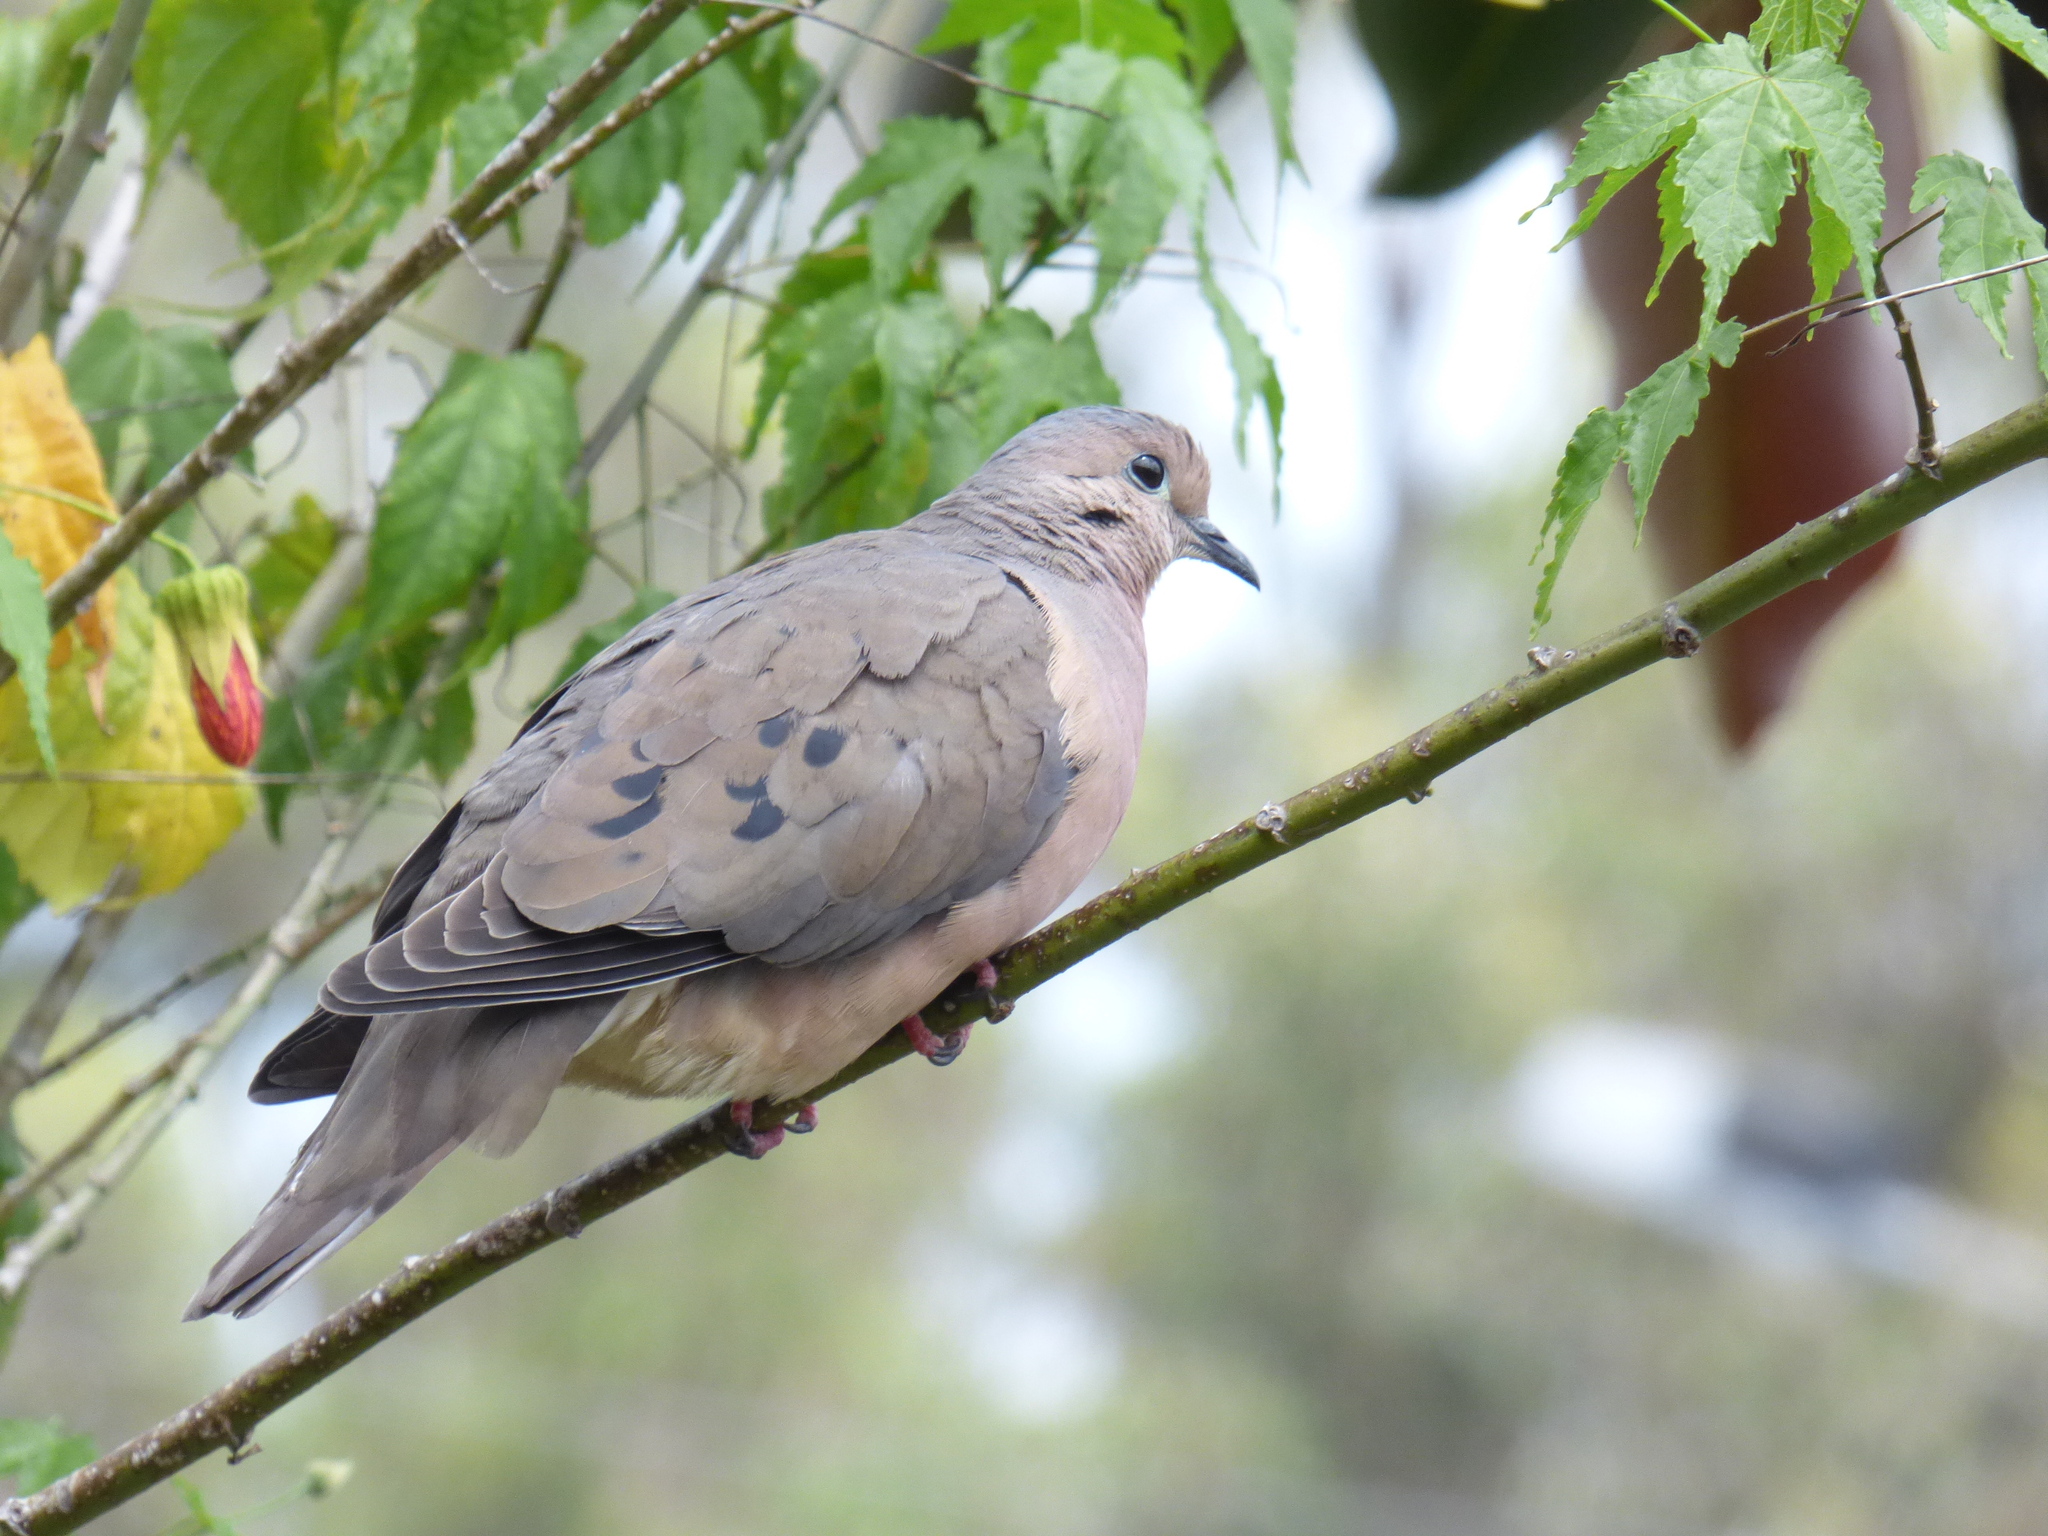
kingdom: Animalia
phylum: Chordata
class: Aves
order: Columbiformes
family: Columbidae
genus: Zenaida
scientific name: Zenaida auriculata
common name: Eared dove
